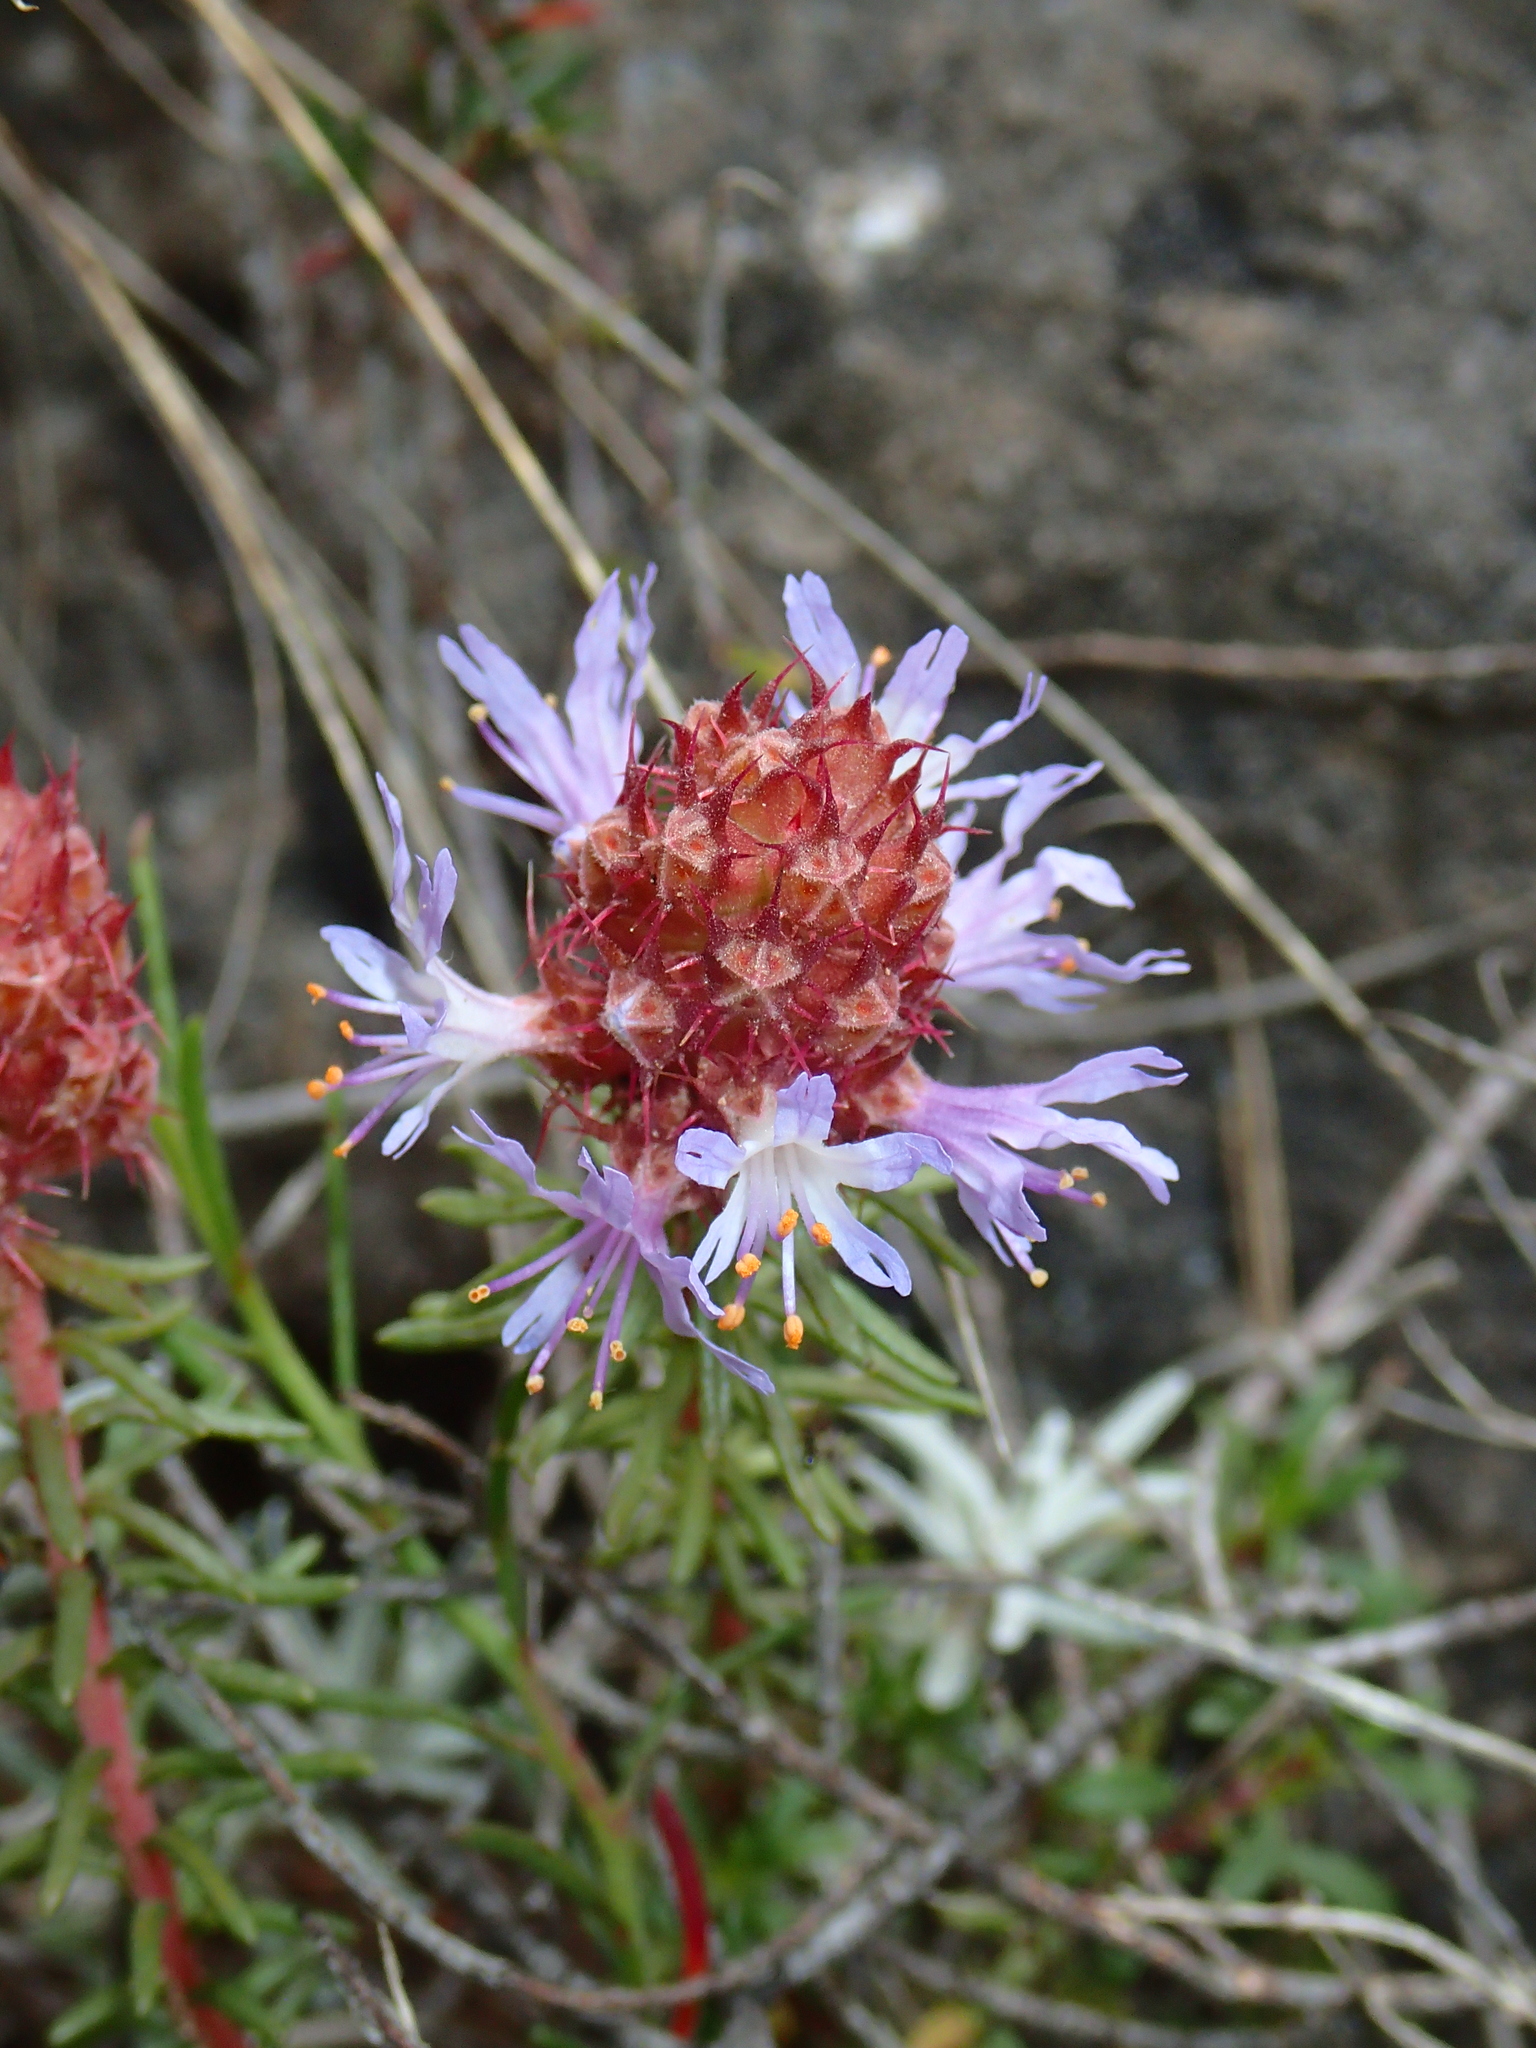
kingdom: Plantae
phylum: Tracheophyta
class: Magnoliopsida
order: Ericales
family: Primulaceae
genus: Coris
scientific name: Coris monspeliensis
